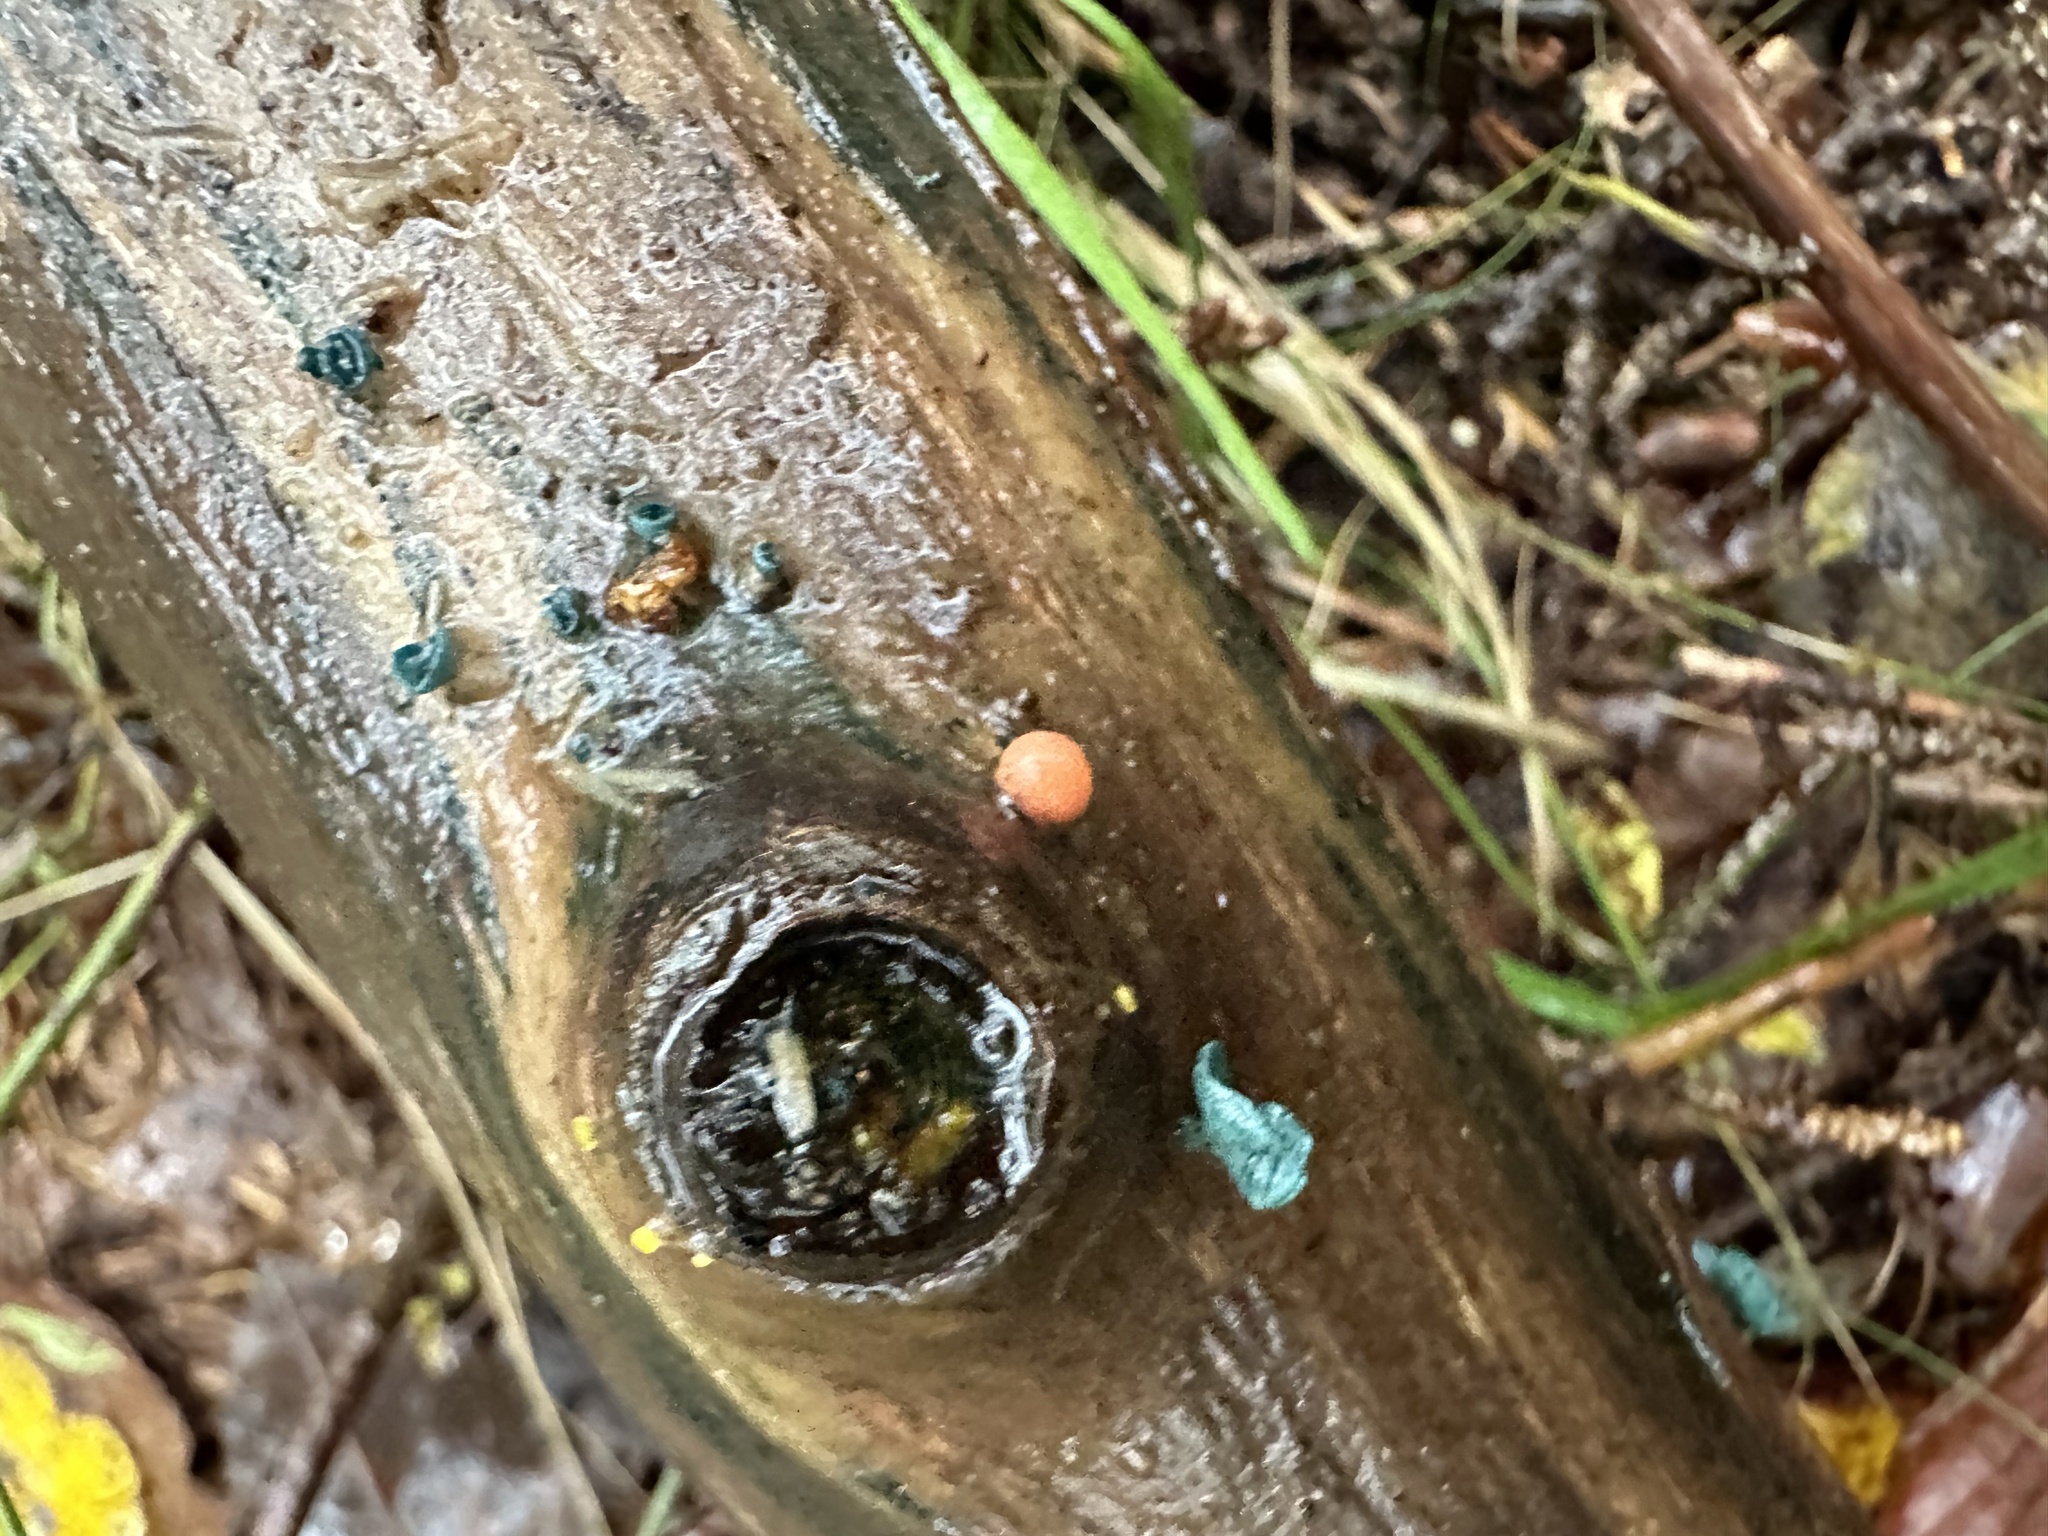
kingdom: Protozoa
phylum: Mycetozoa
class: Myxomycetes
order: Cribrariales
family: Tubiferaceae
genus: Lycogala
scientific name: Lycogala epidendrum
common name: Wolf's milk
